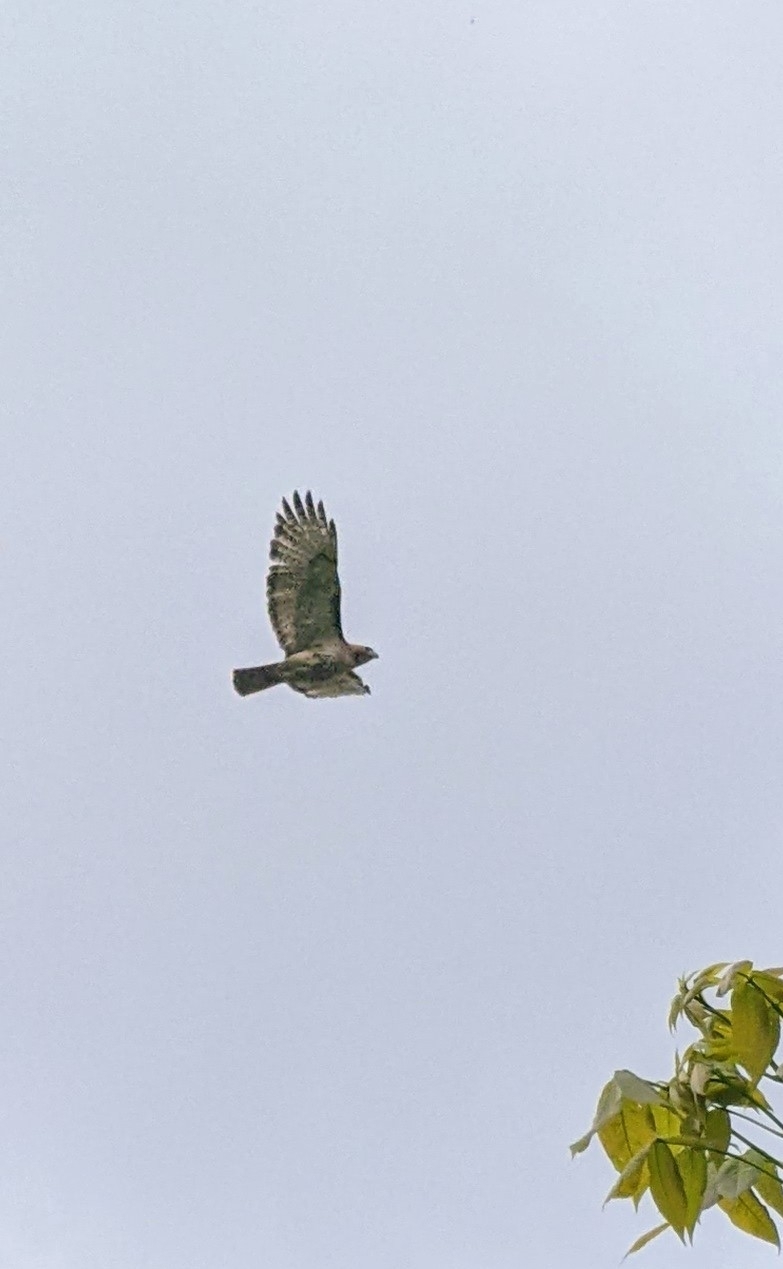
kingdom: Animalia
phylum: Chordata
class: Aves
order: Accipitriformes
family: Accipitridae
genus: Buteo
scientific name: Buteo jamaicensis
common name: Red-tailed hawk
